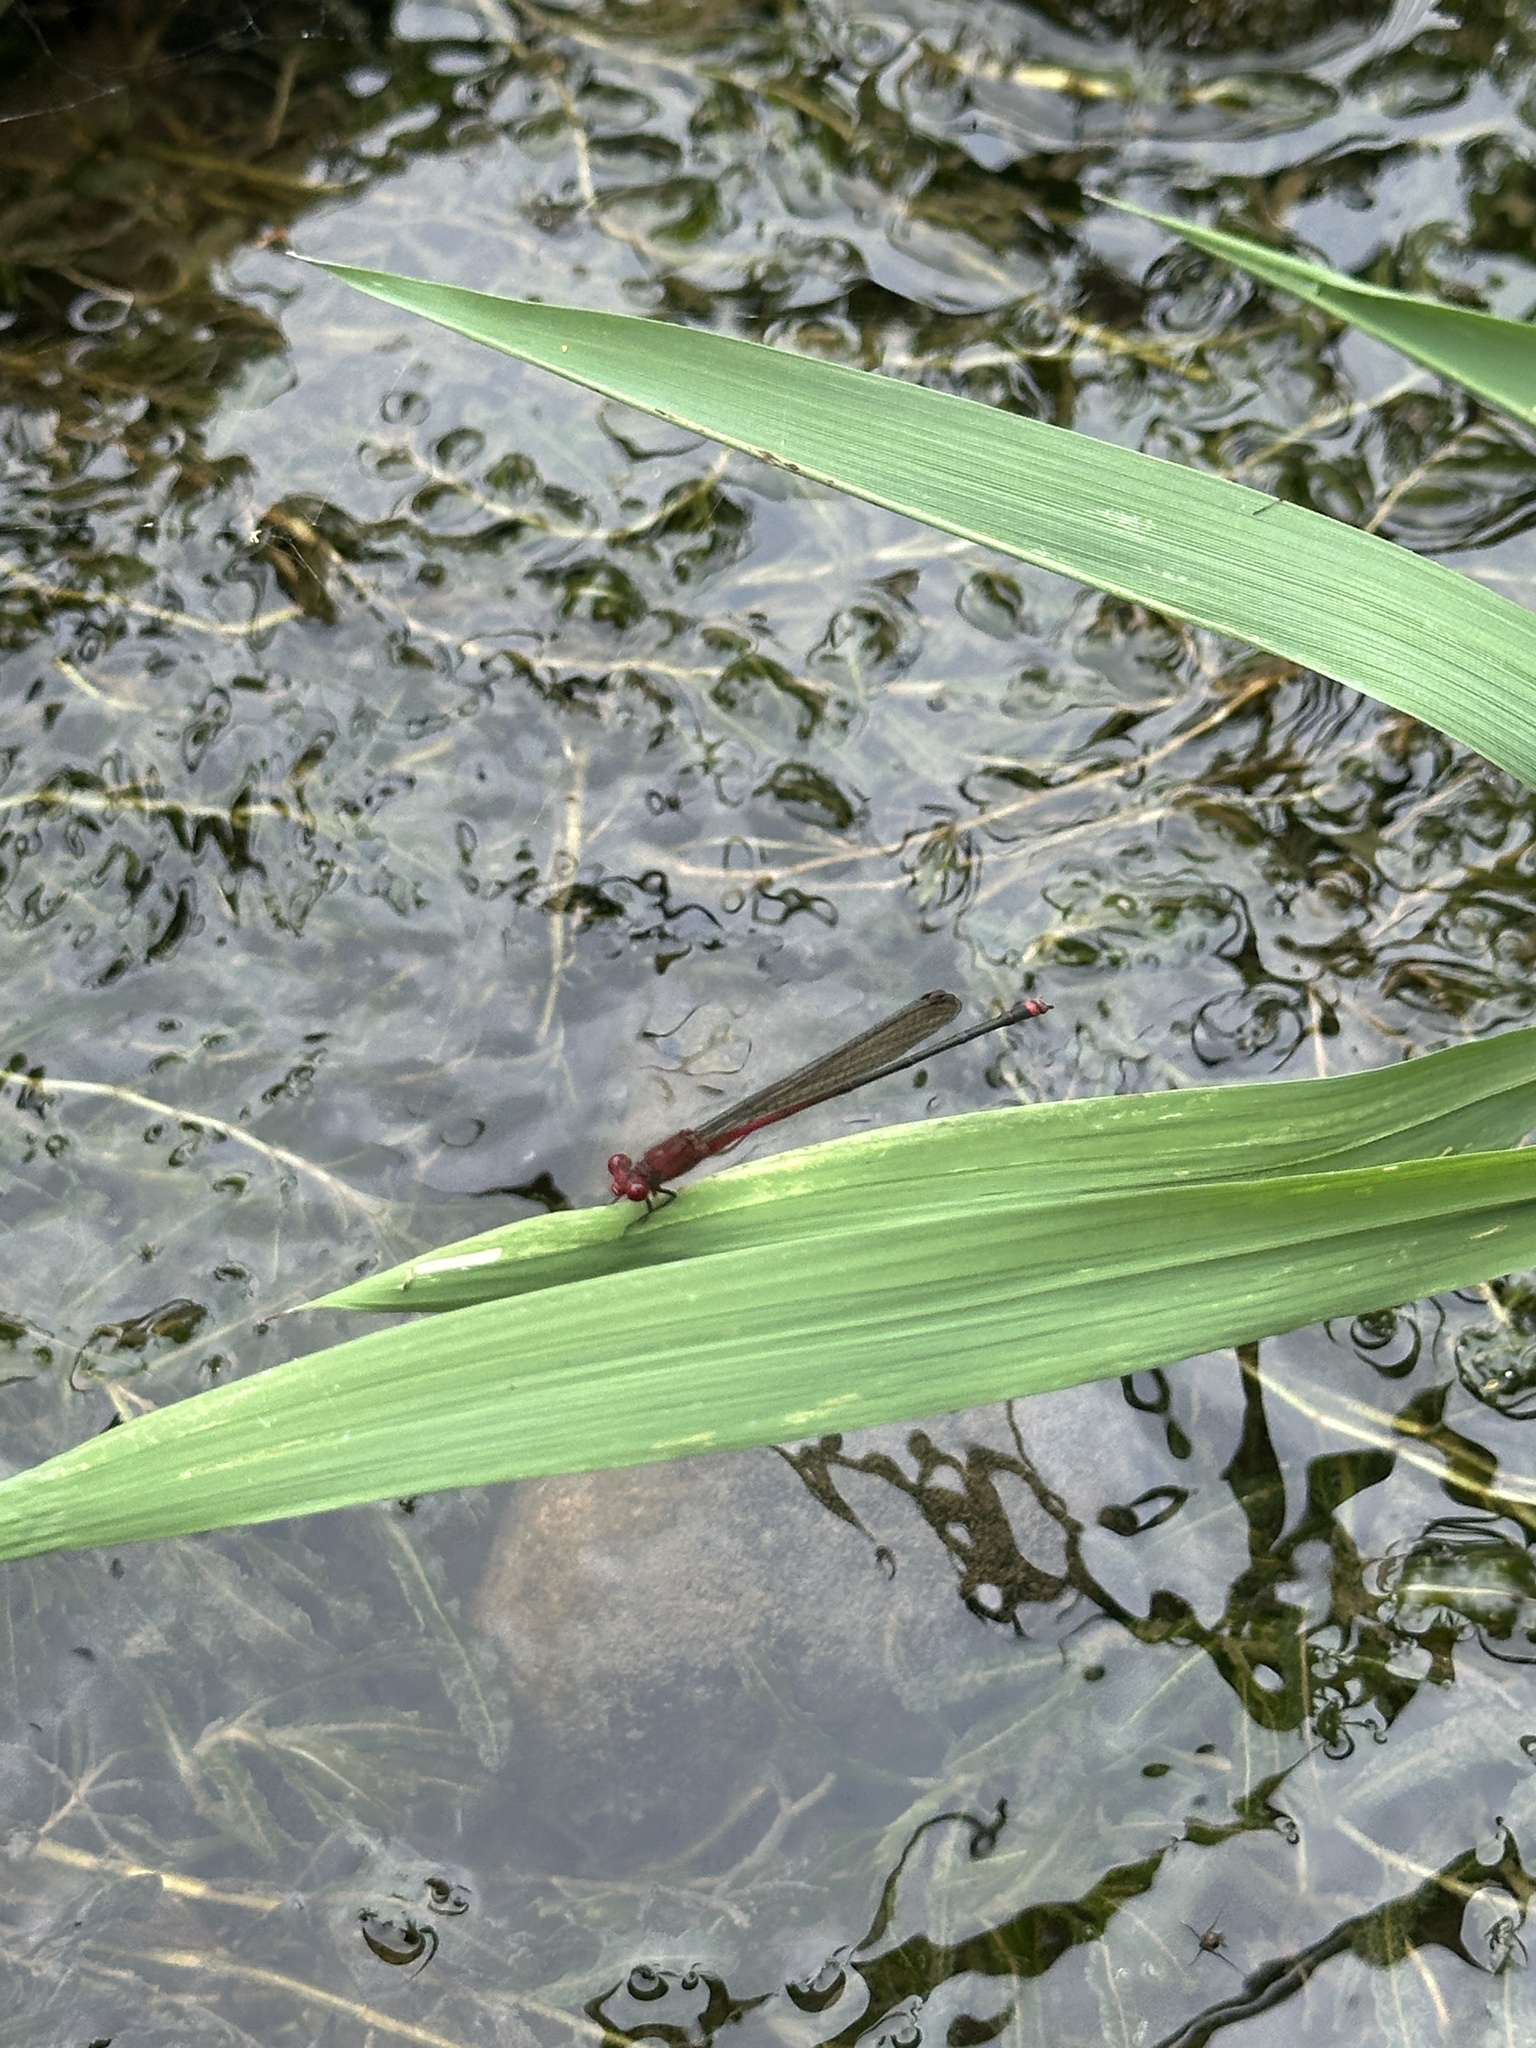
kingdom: Animalia
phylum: Arthropoda
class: Insecta
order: Odonata
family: Coenagrionidae
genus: Pseudagrion
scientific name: Pseudagrion pilidorsum
